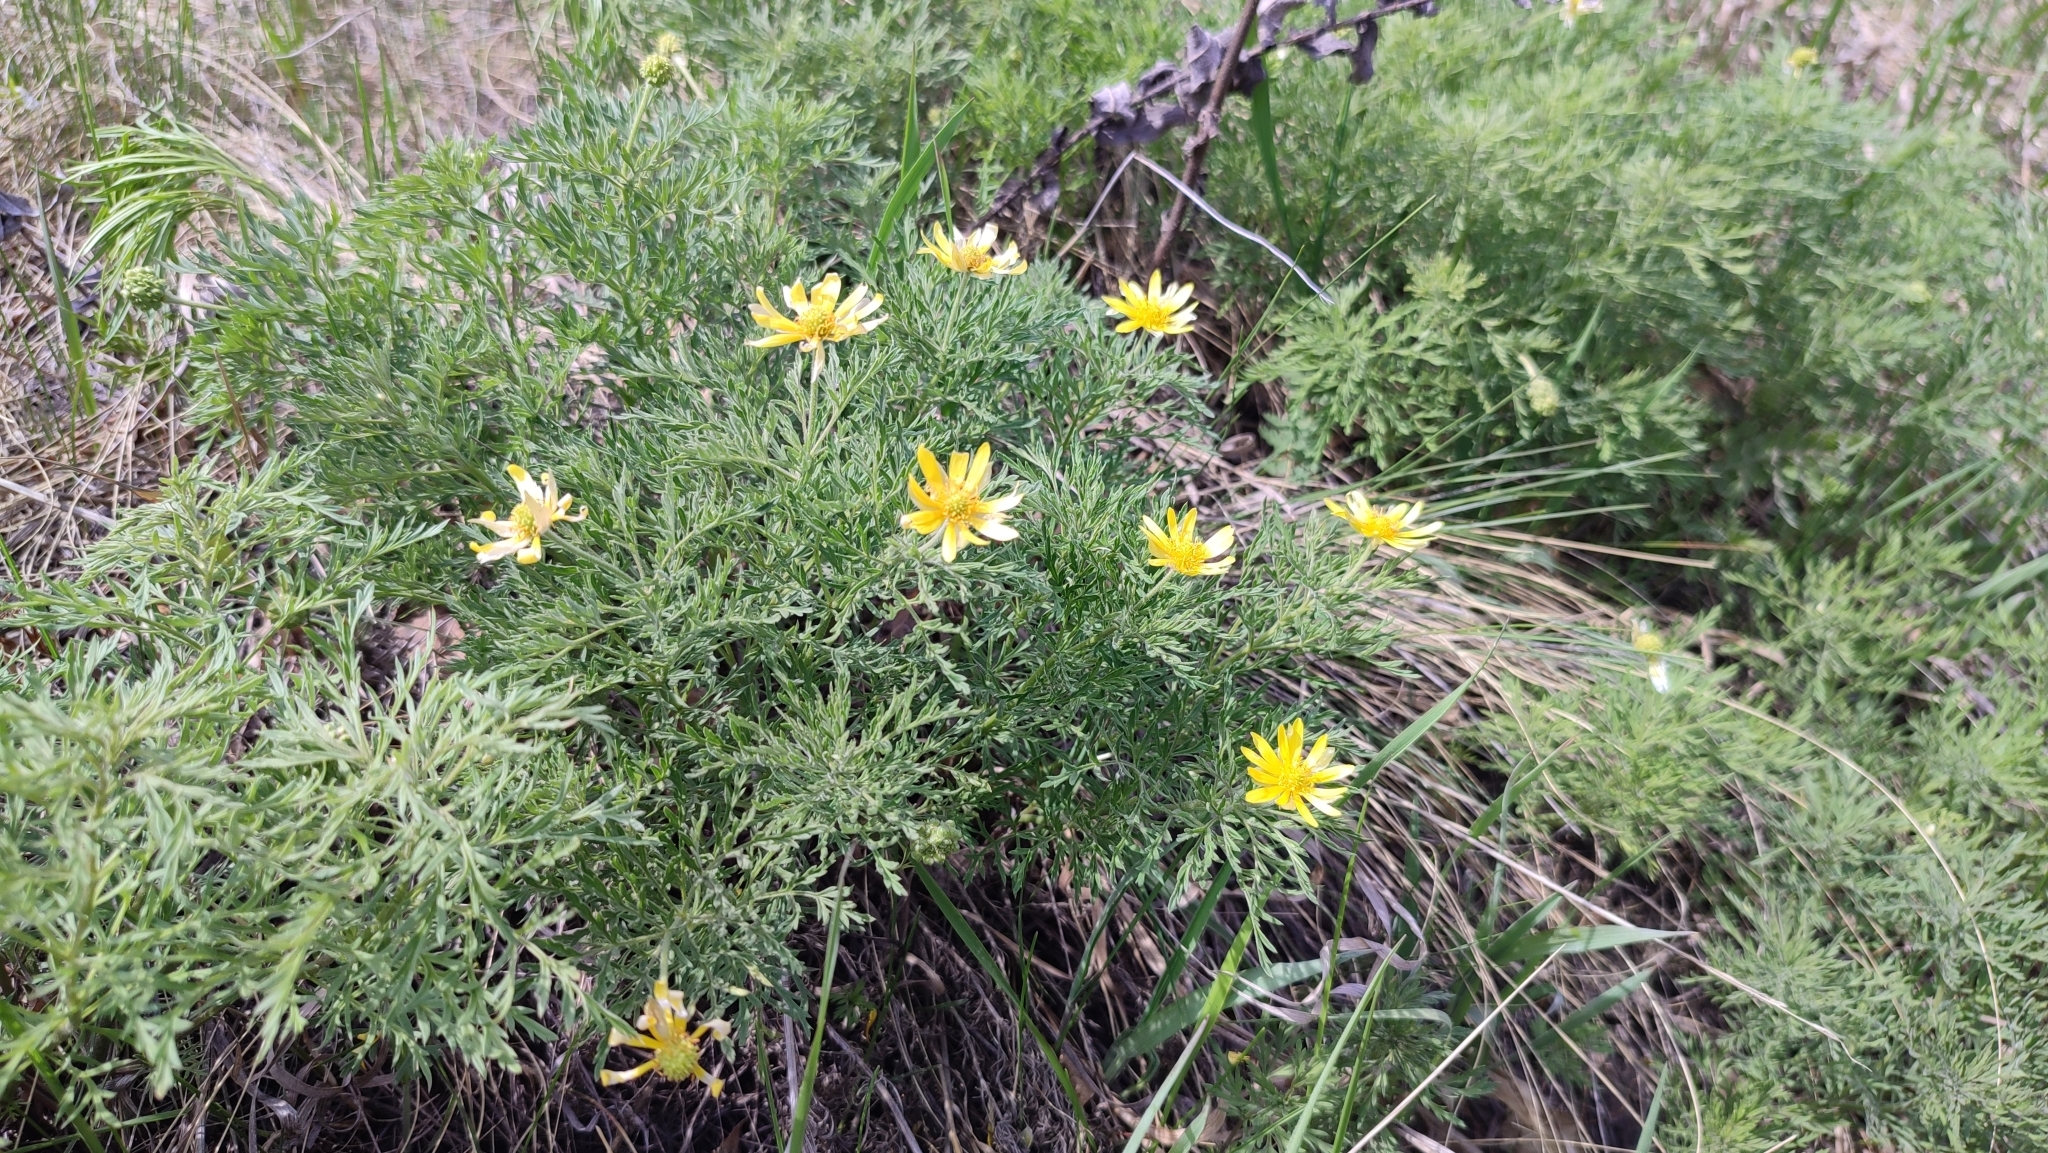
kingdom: Plantae
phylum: Tracheophyta
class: Magnoliopsida
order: Ranunculales
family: Ranunculaceae
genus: Adonis
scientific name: Adonis villosa
